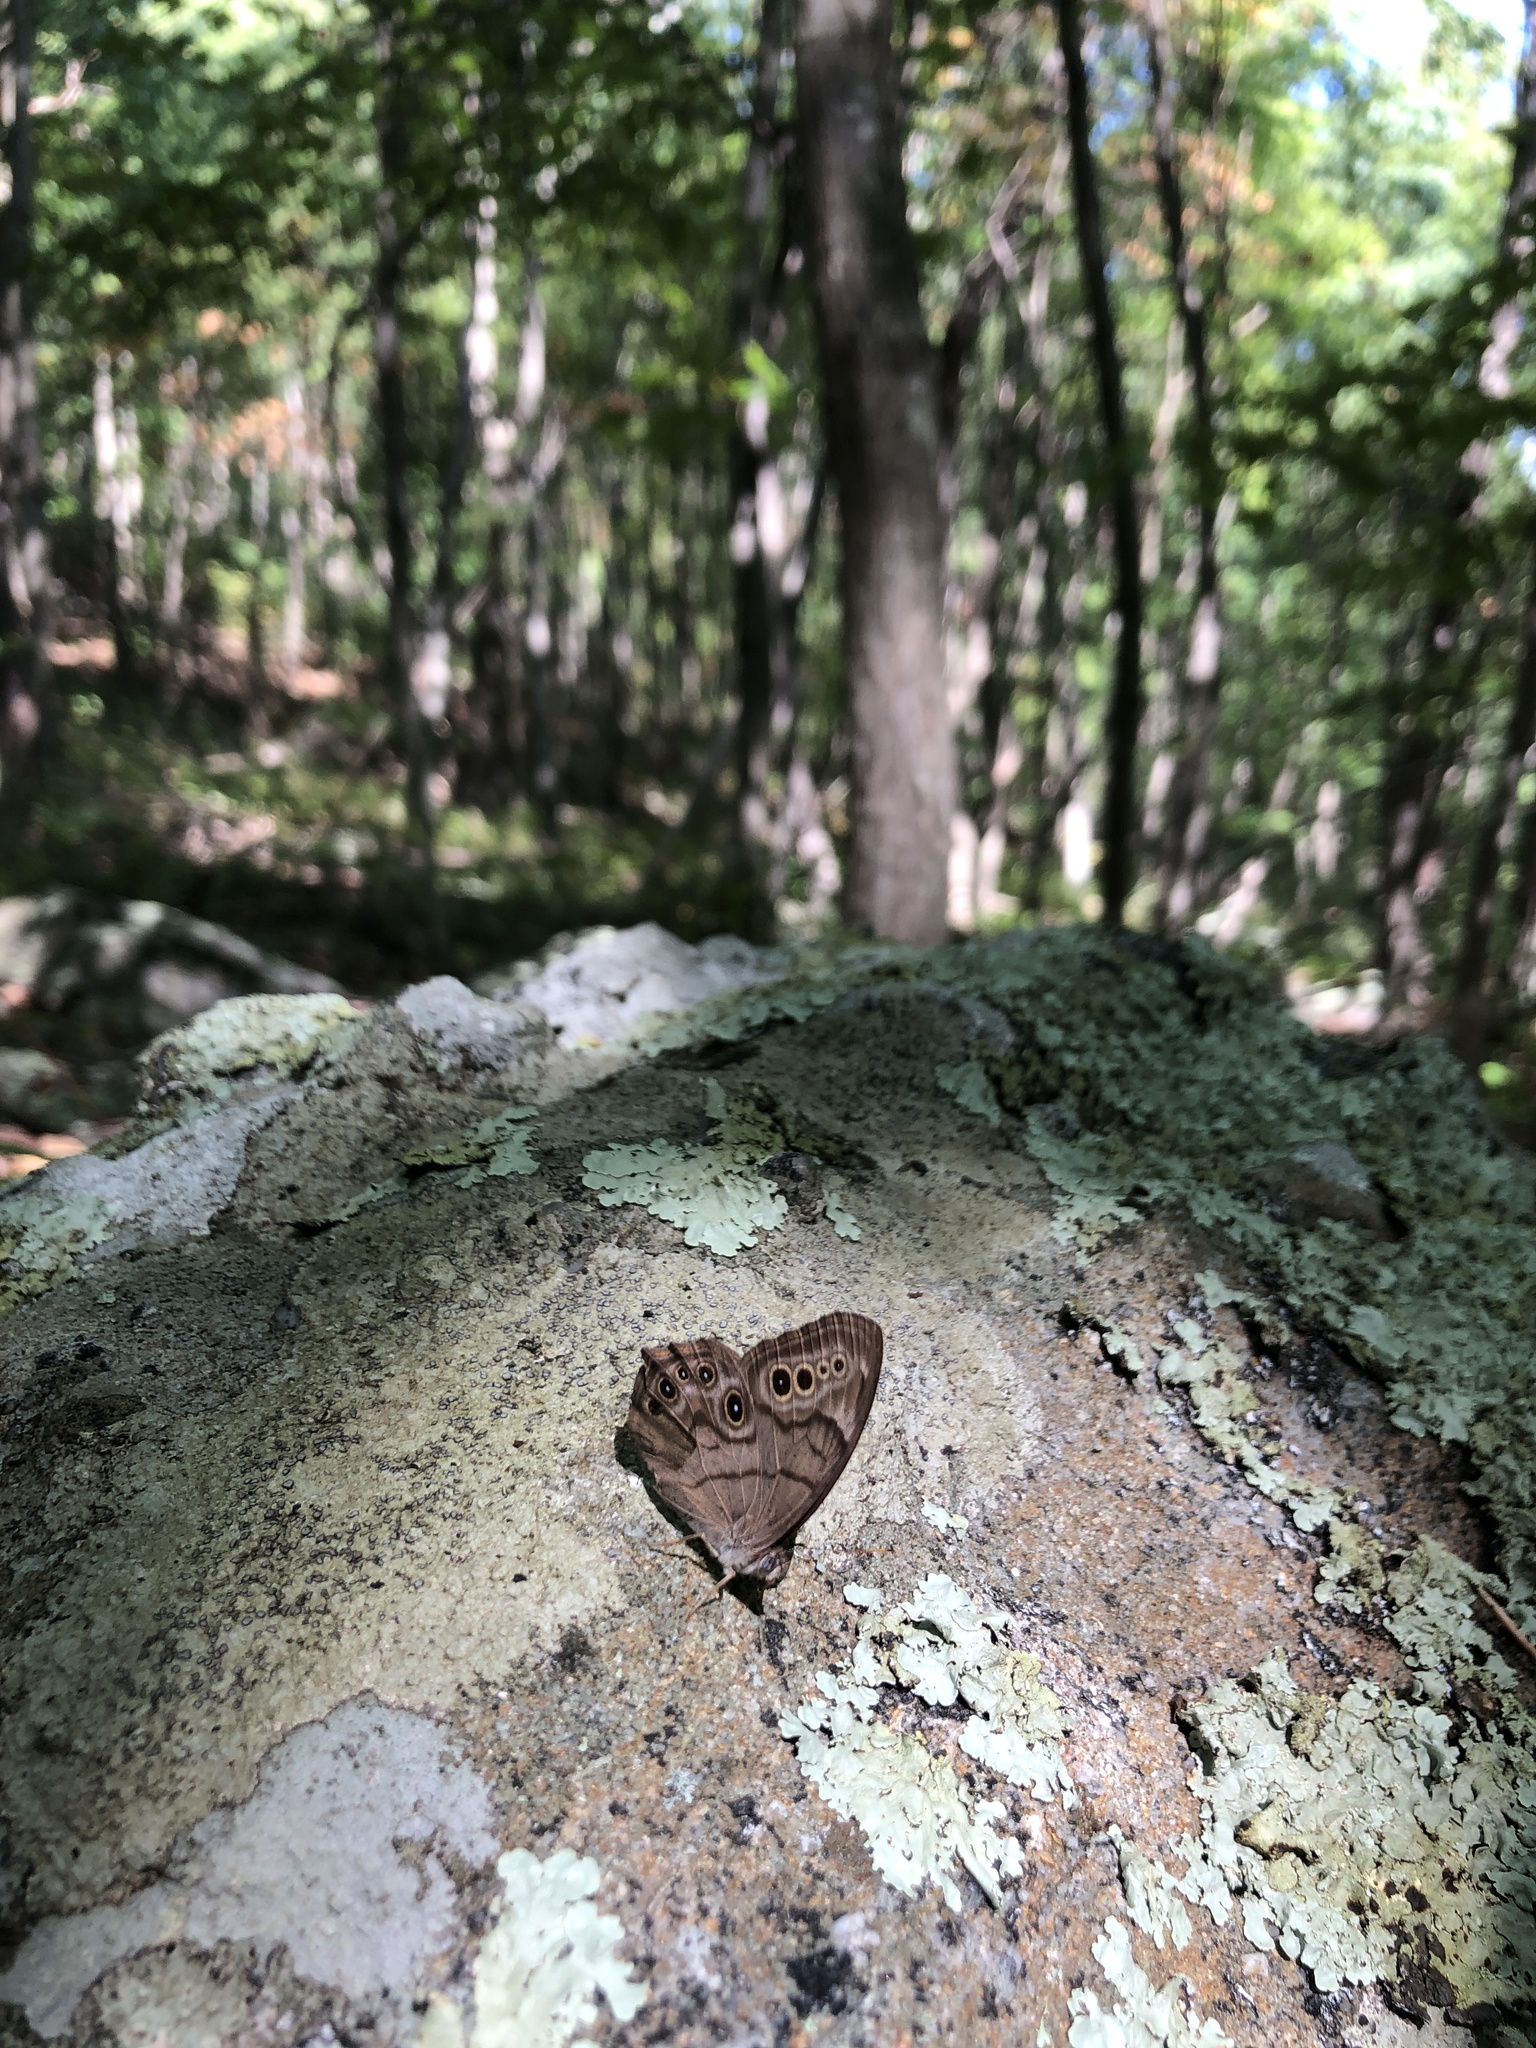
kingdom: Animalia
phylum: Arthropoda
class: Insecta
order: Lepidoptera
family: Nymphalidae
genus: Lethe
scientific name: Lethe anthedon
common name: Northern pearly-eye
